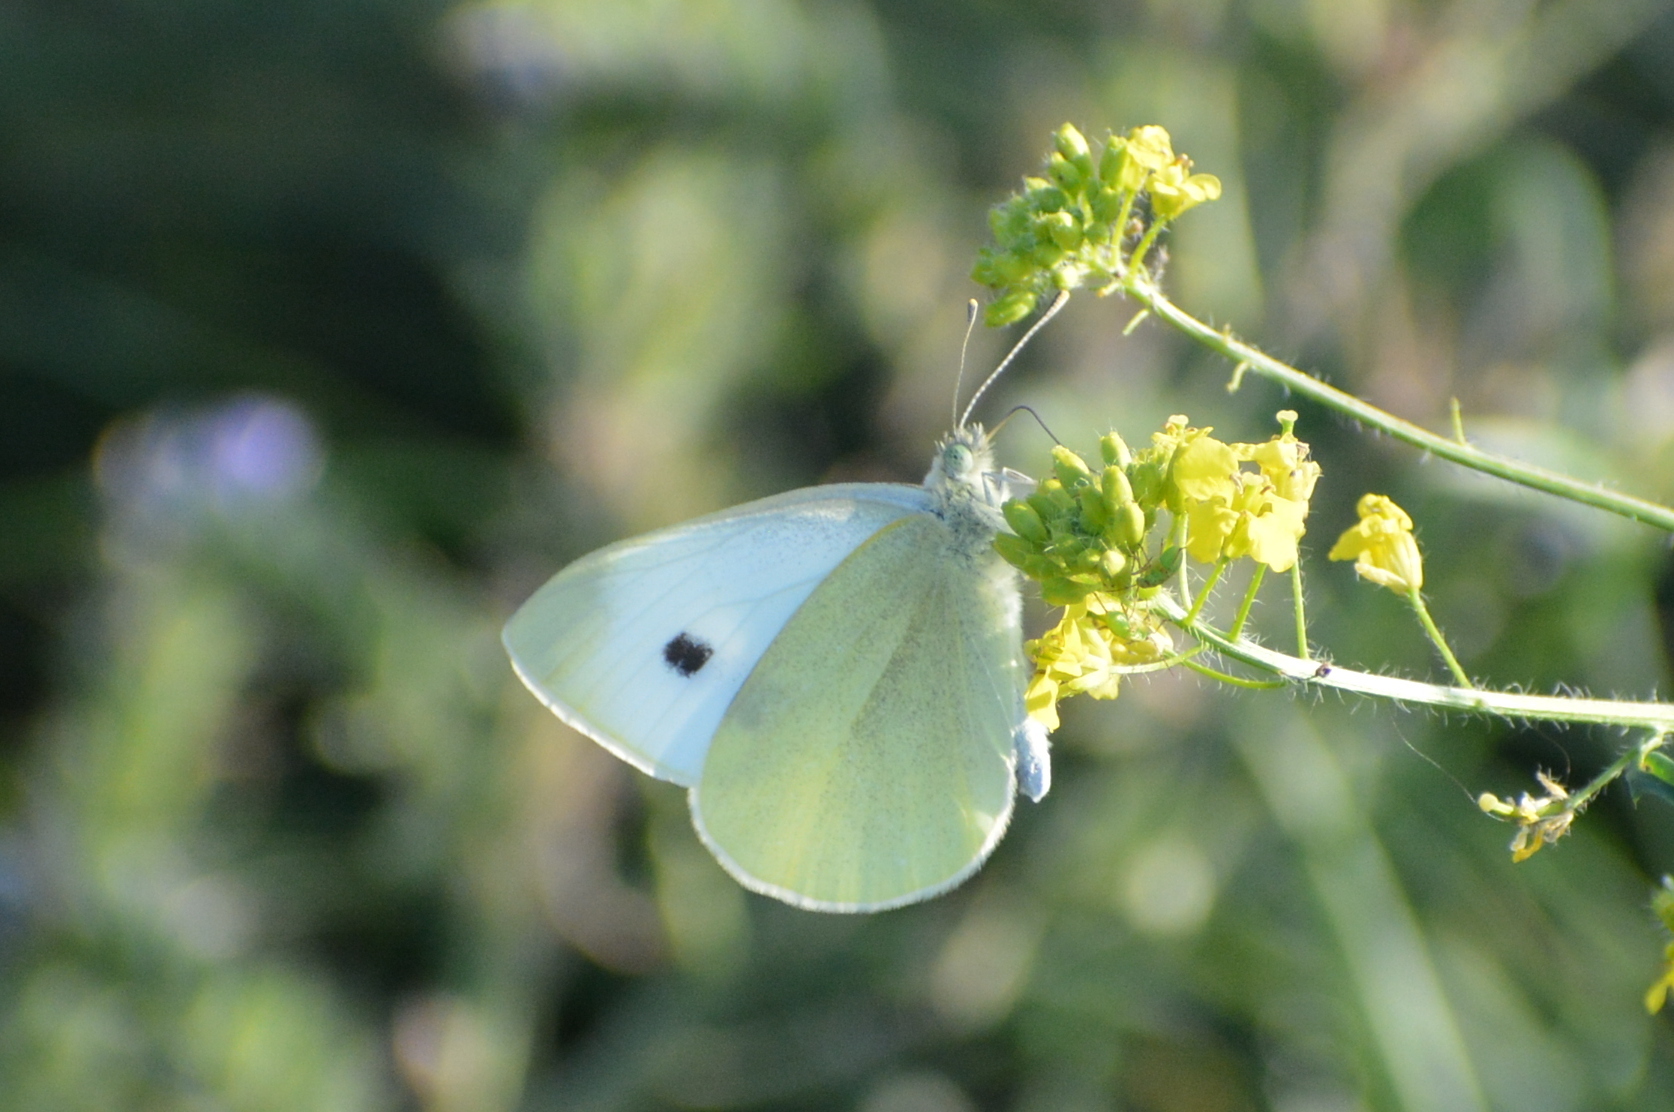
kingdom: Animalia
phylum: Arthropoda
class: Insecta
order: Lepidoptera
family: Pieridae
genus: Pieris
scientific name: Pieris rapae
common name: Small white
